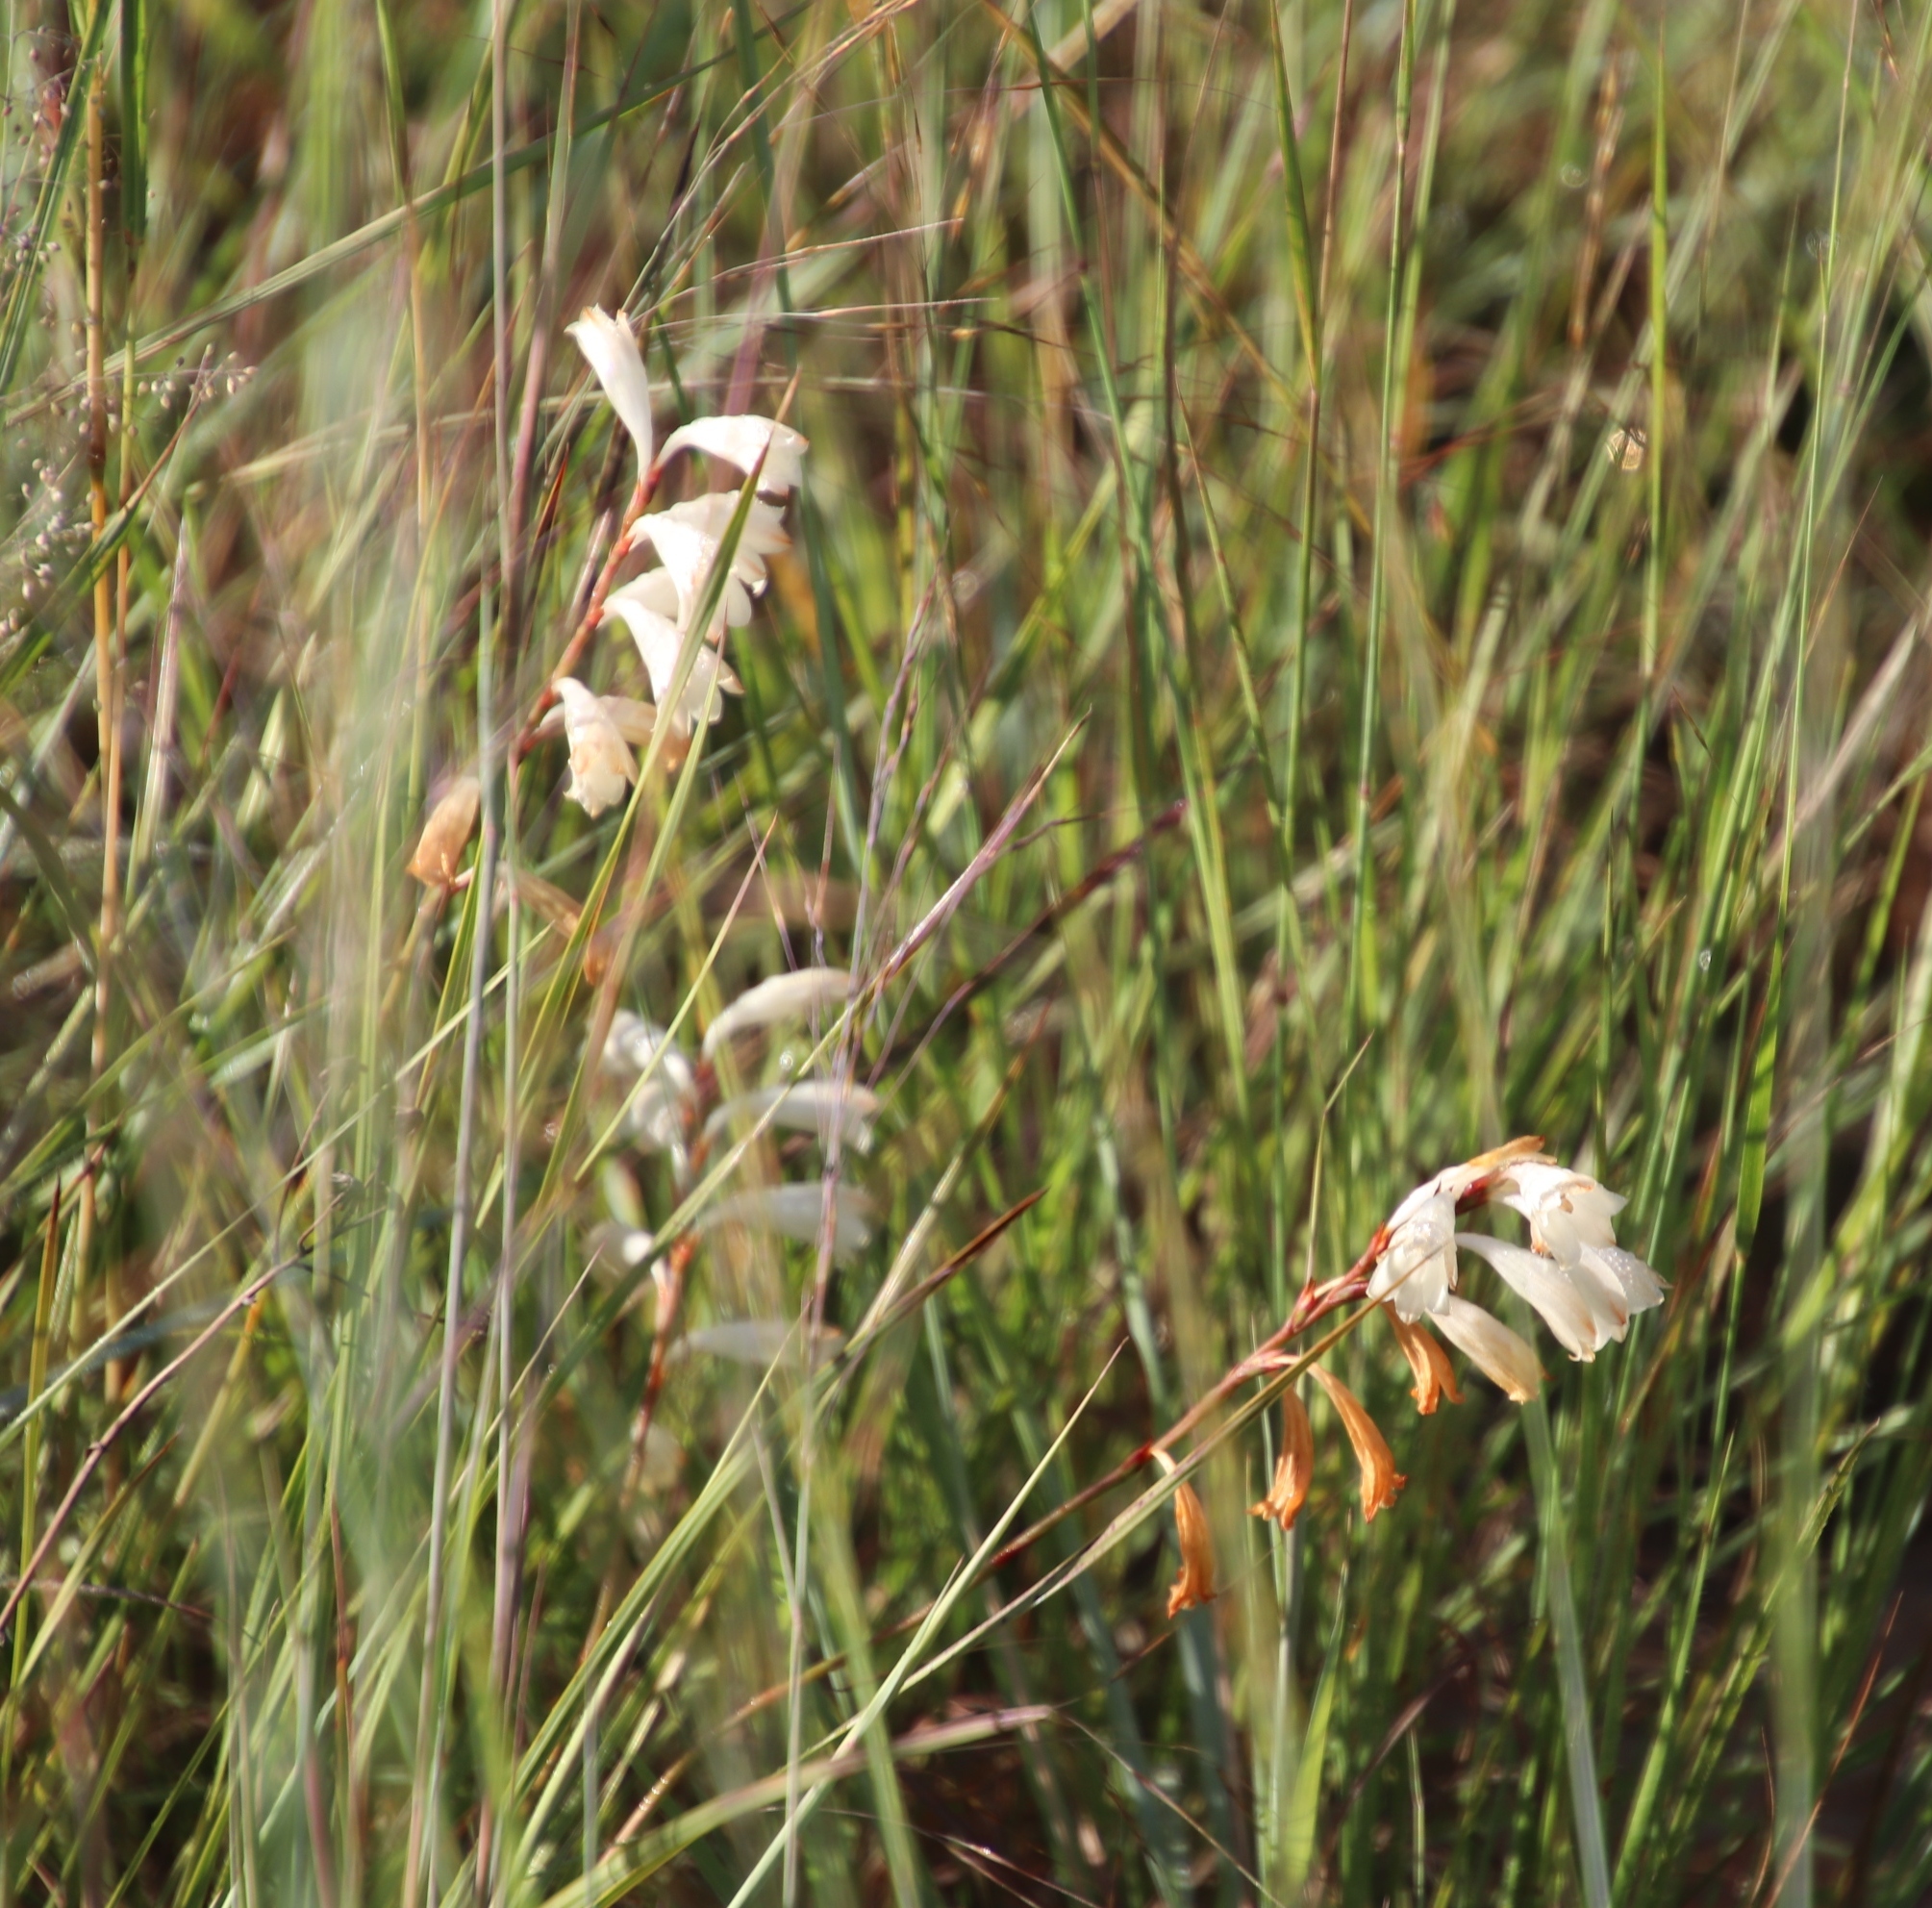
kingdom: Plantae
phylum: Tracheophyta
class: Liliopsida
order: Asparagales
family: Iridaceae
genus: Watsonia
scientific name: Watsonia watsonioides
